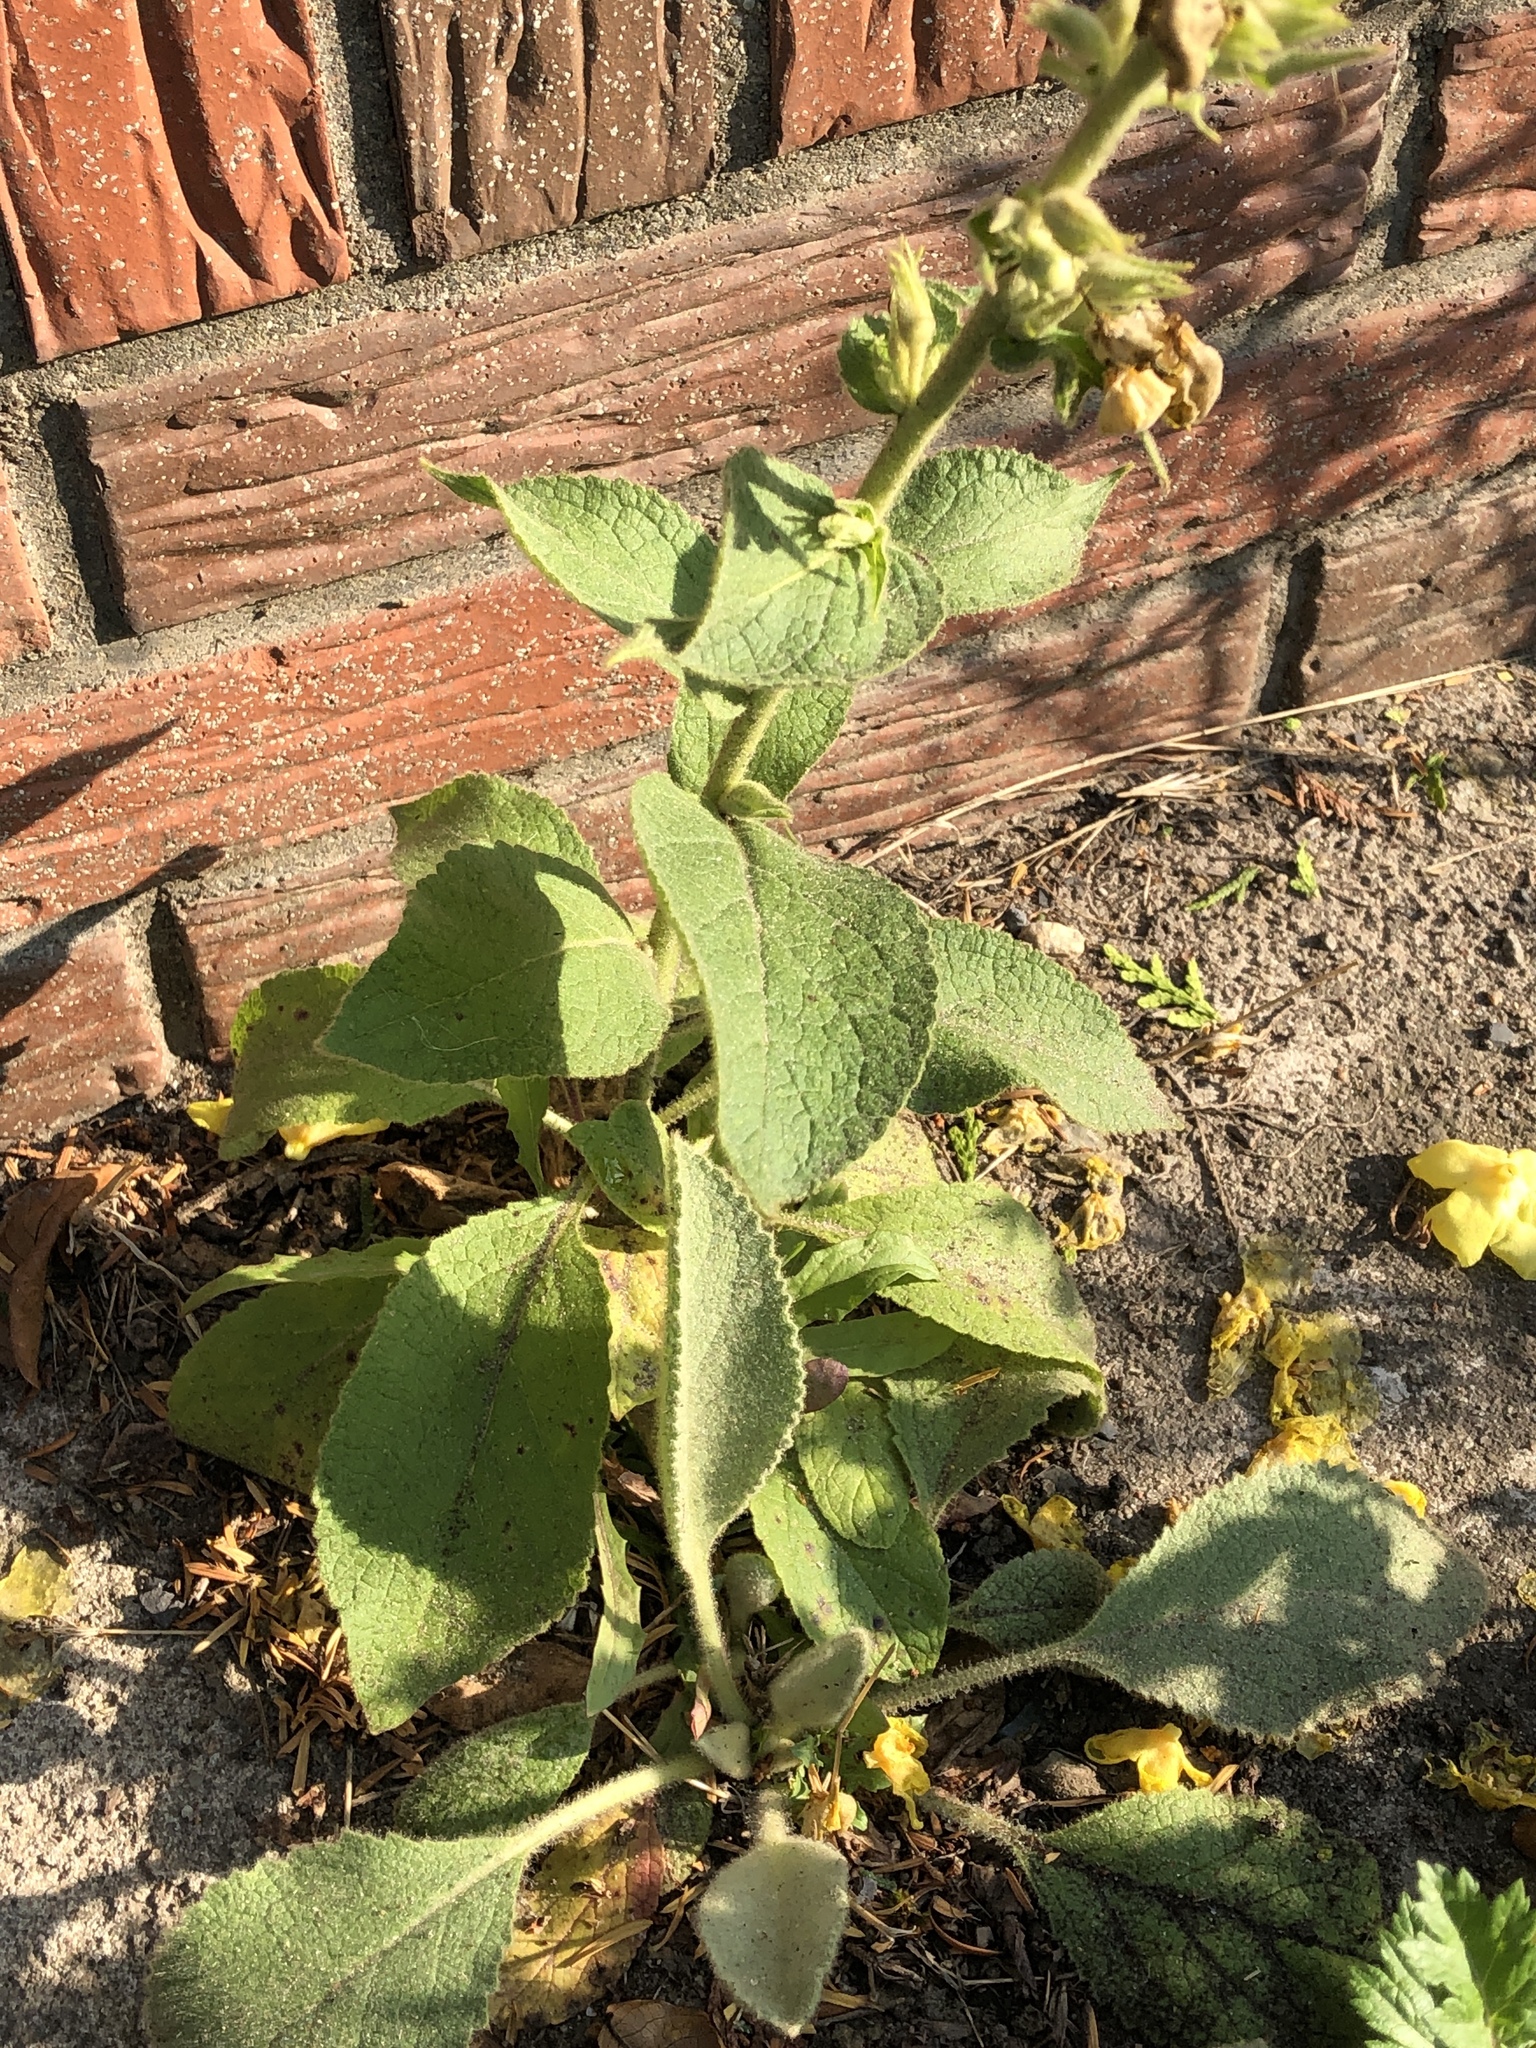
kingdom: Plantae
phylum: Tracheophyta
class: Magnoliopsida
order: Lamiales
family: Scrophulariaceae
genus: Verbascum
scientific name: Verbascum phlomoides
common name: Orange mullein
